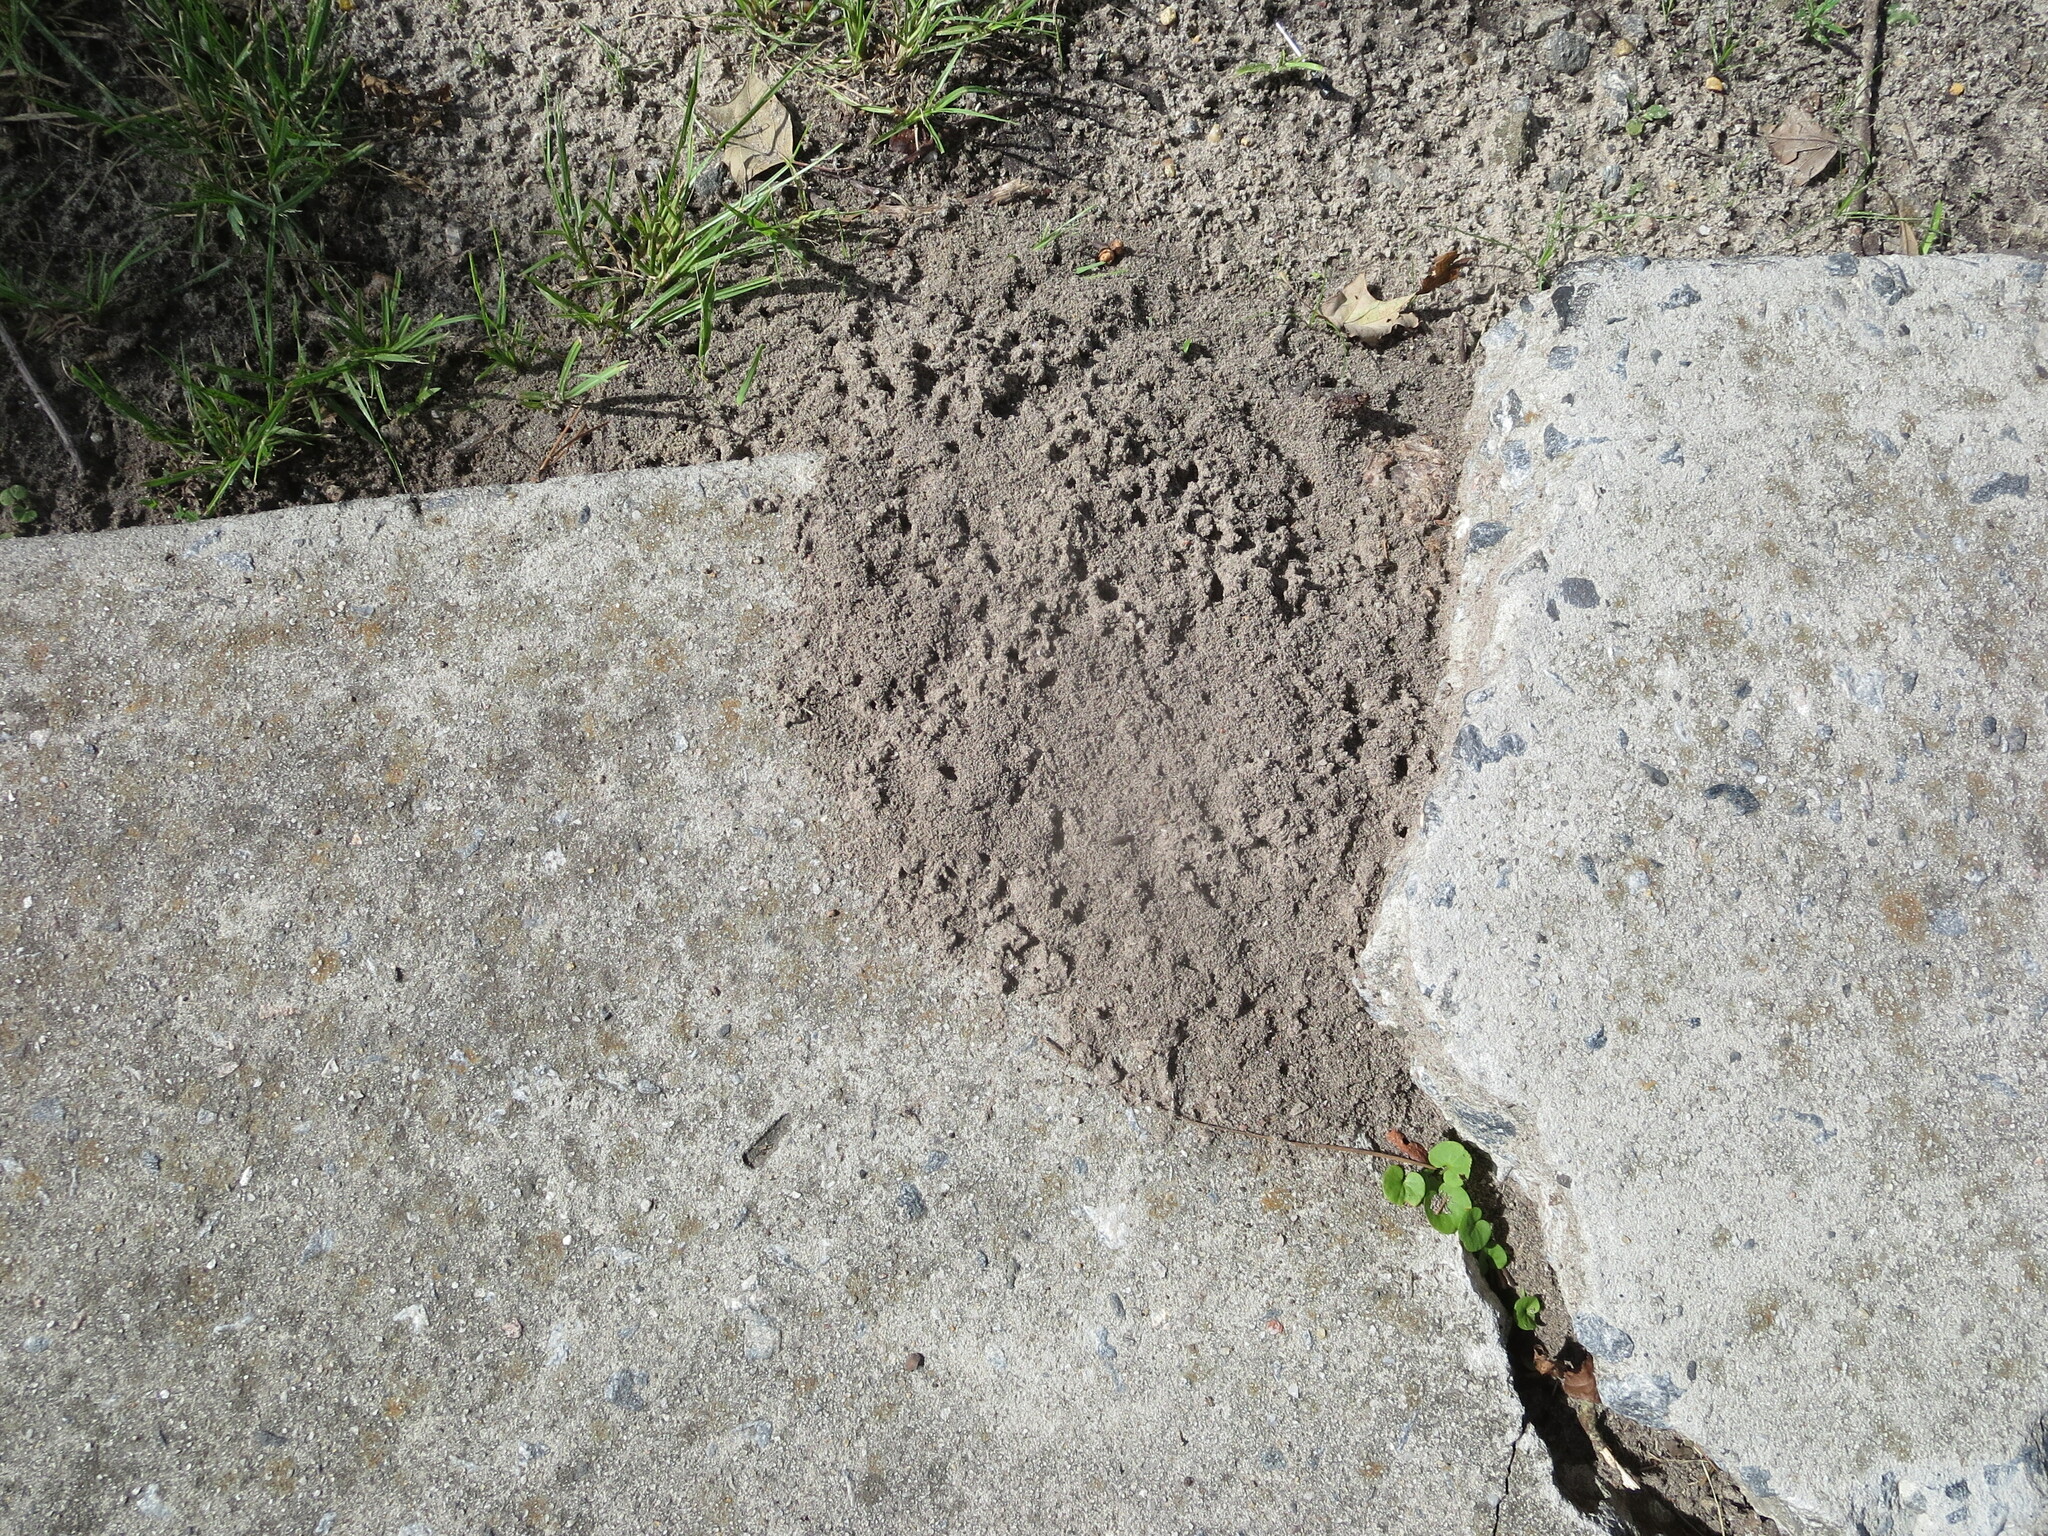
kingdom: Animalia
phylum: Arthropoda
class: Insecta
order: Hymenoptera
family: Formicidae
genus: Solenopsis
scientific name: Solenopsis invicta
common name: Red imported fire ant
